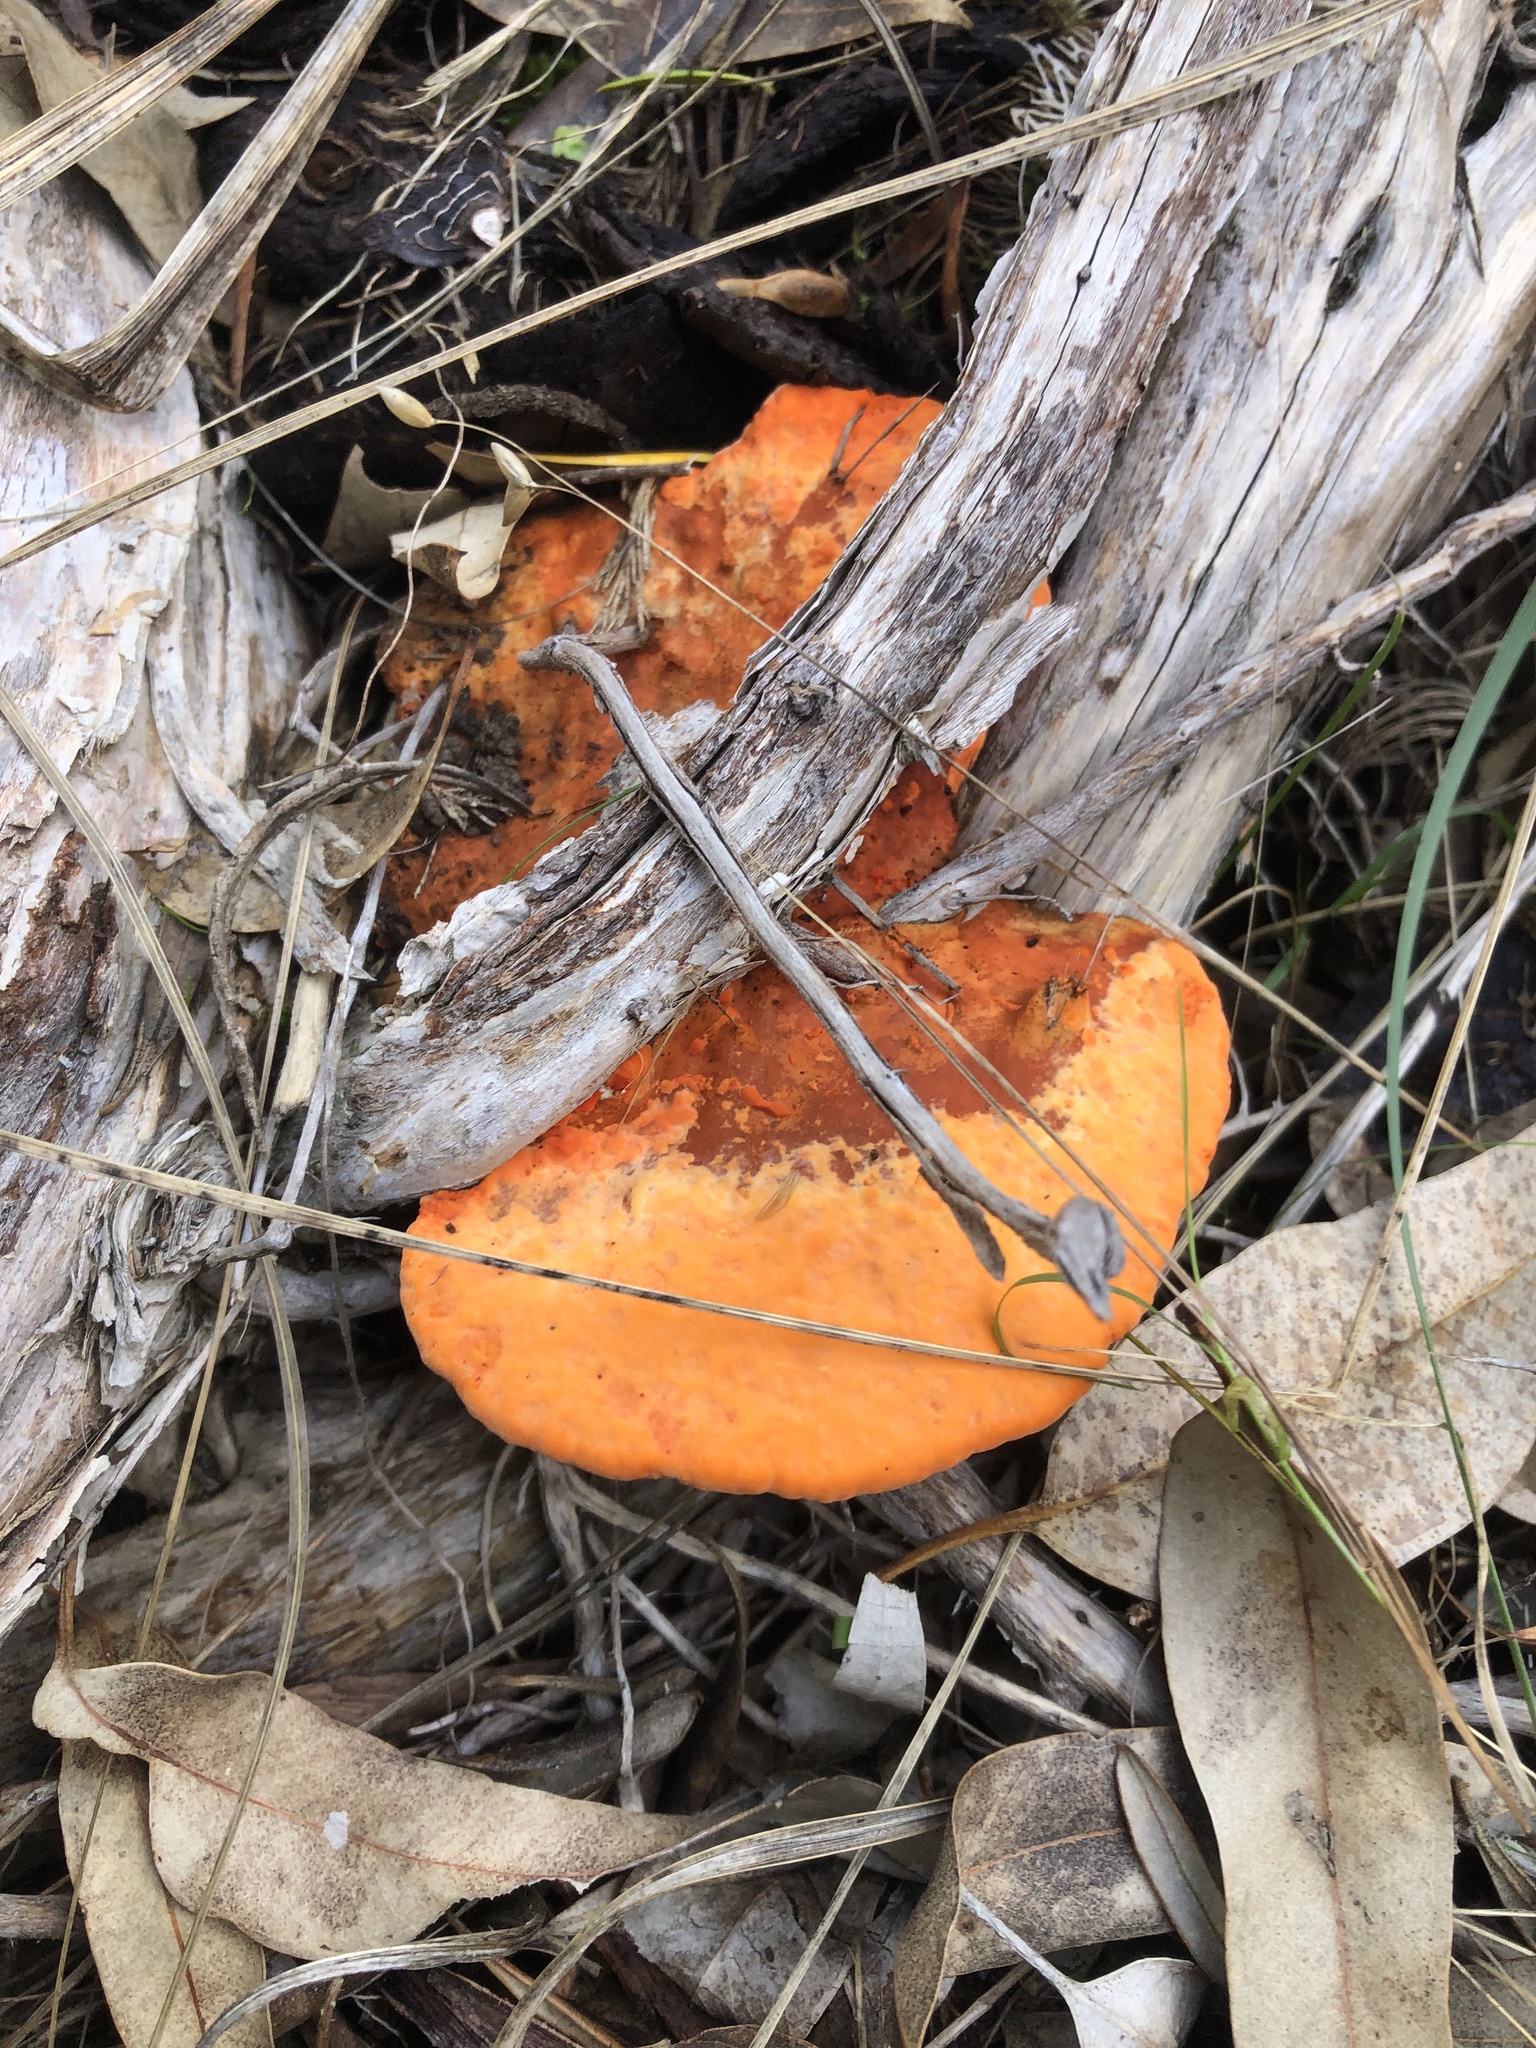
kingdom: Fungi
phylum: Basidiomycota
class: Agaricomycetes
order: Polyporales
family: Polyporaceae
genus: Trametes
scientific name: Trametes coccinea
